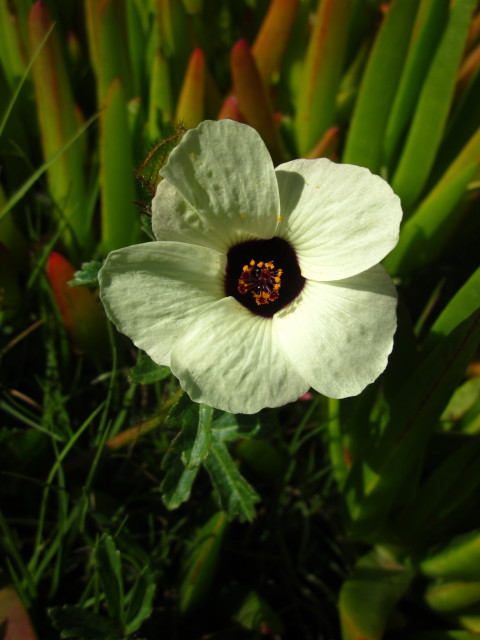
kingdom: Plantae
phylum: Tracheophyta
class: Magnoliopsida
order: Malvales
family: Malvaceae
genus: Hibiscus
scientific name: Hibiscus trionum
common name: Bladder ketmia
